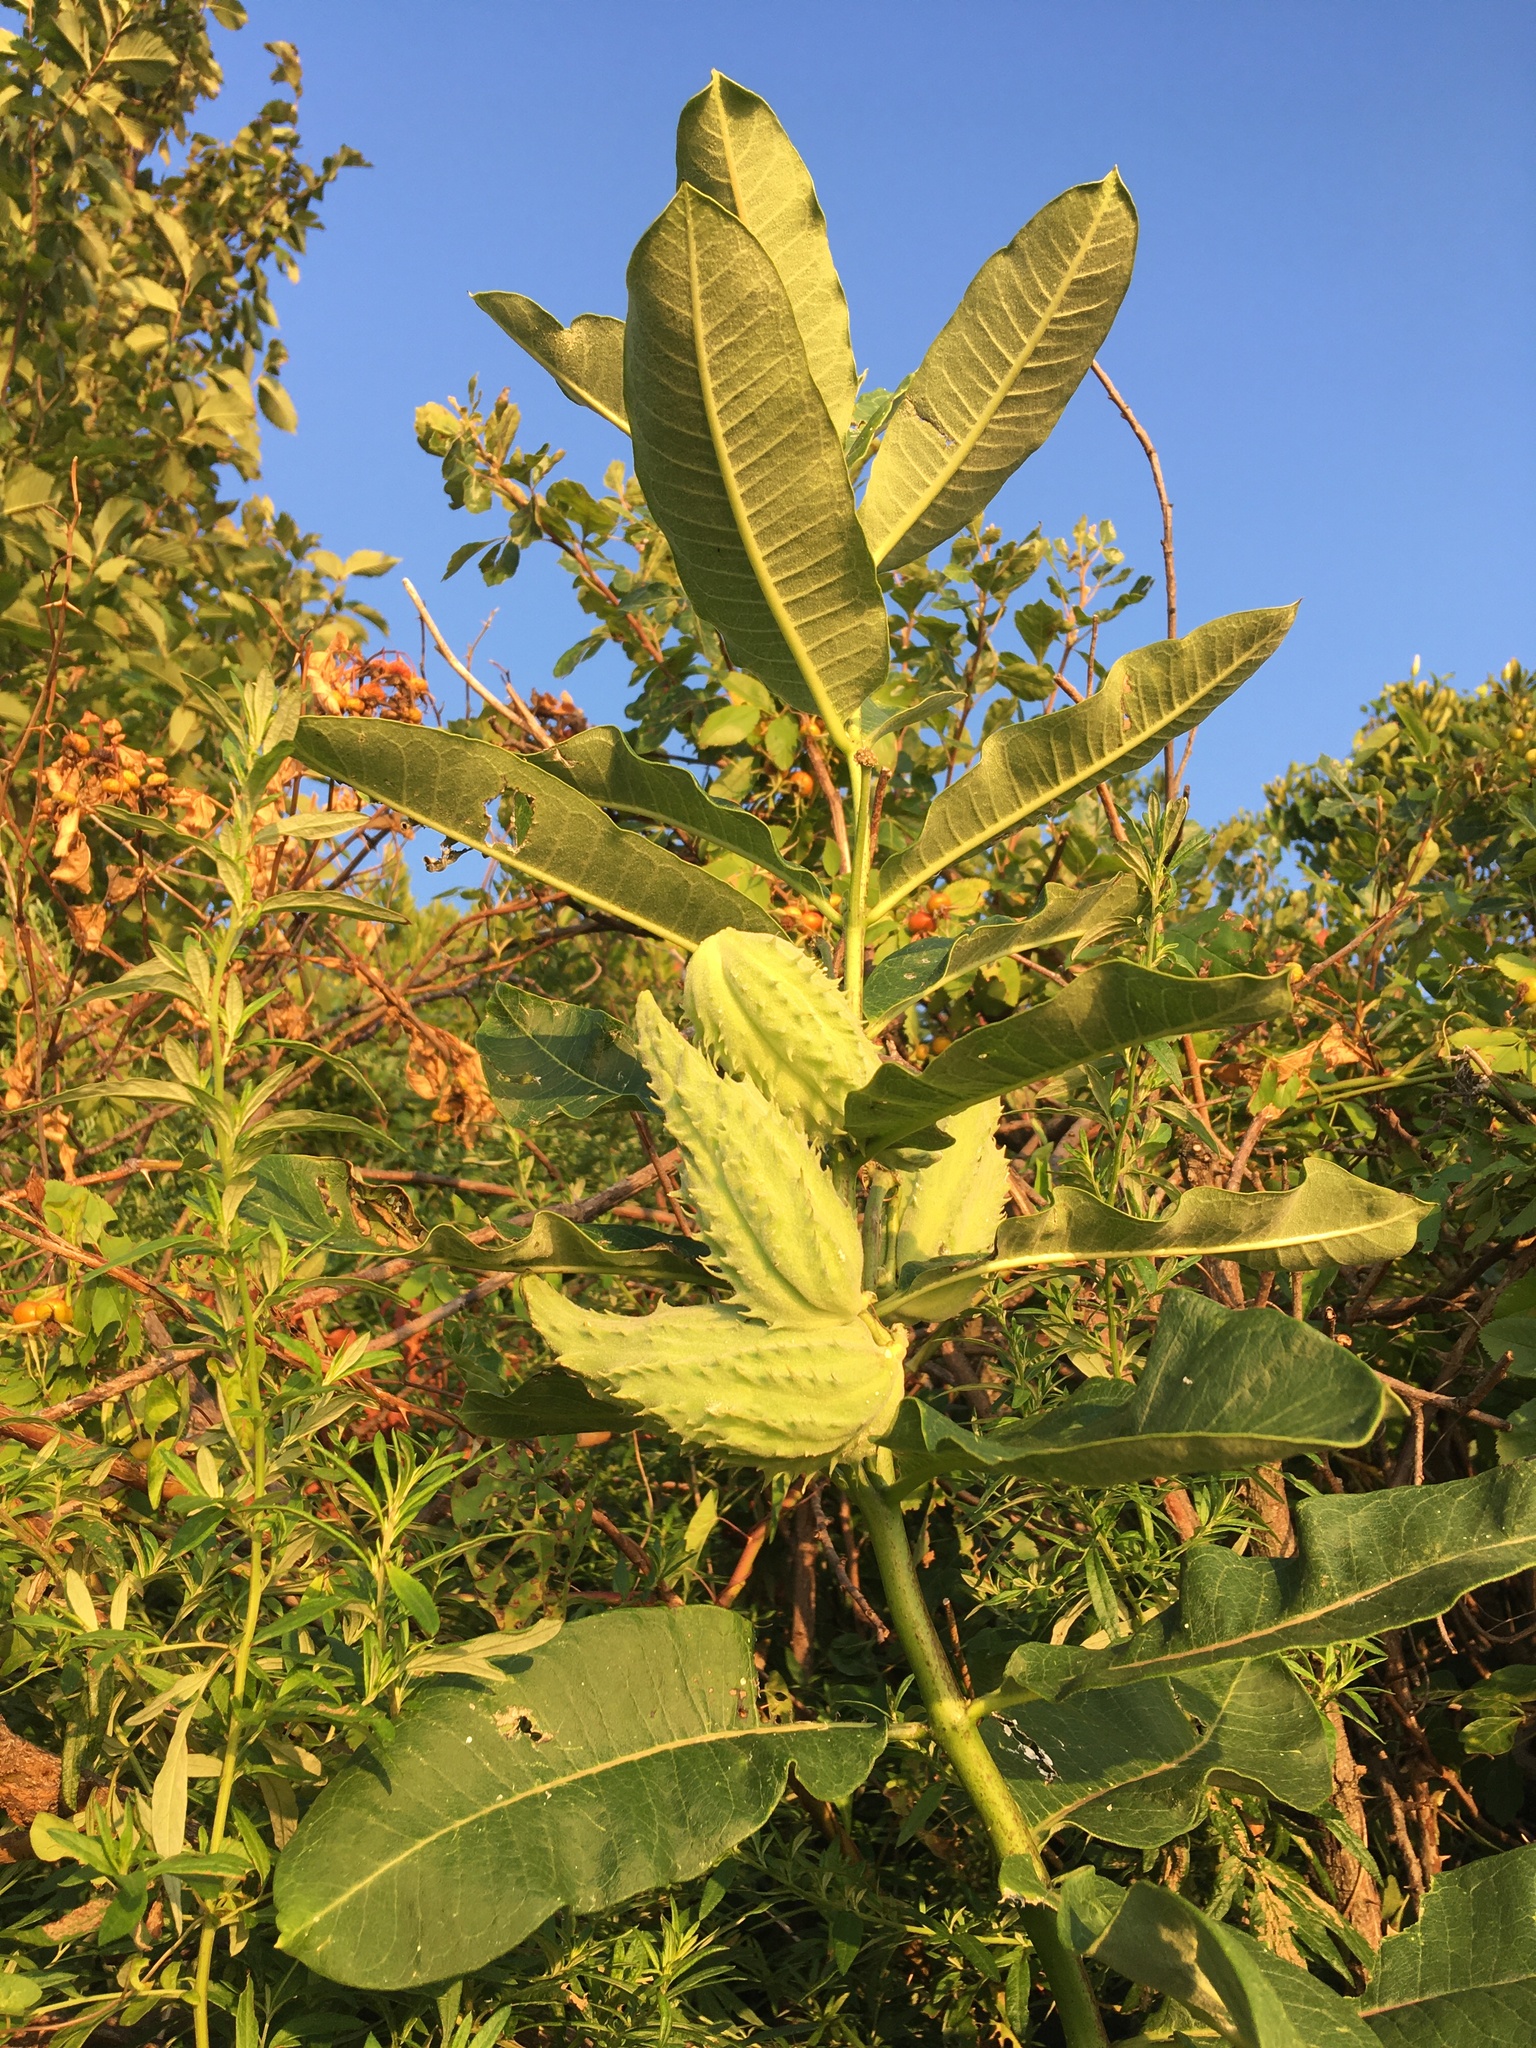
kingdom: Plantae
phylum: Tracheophyta
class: Magnoliopsida
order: Gentianales
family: Apocynaceae
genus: Asclepias
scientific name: Asclepias syriaca
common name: Common milkweed
